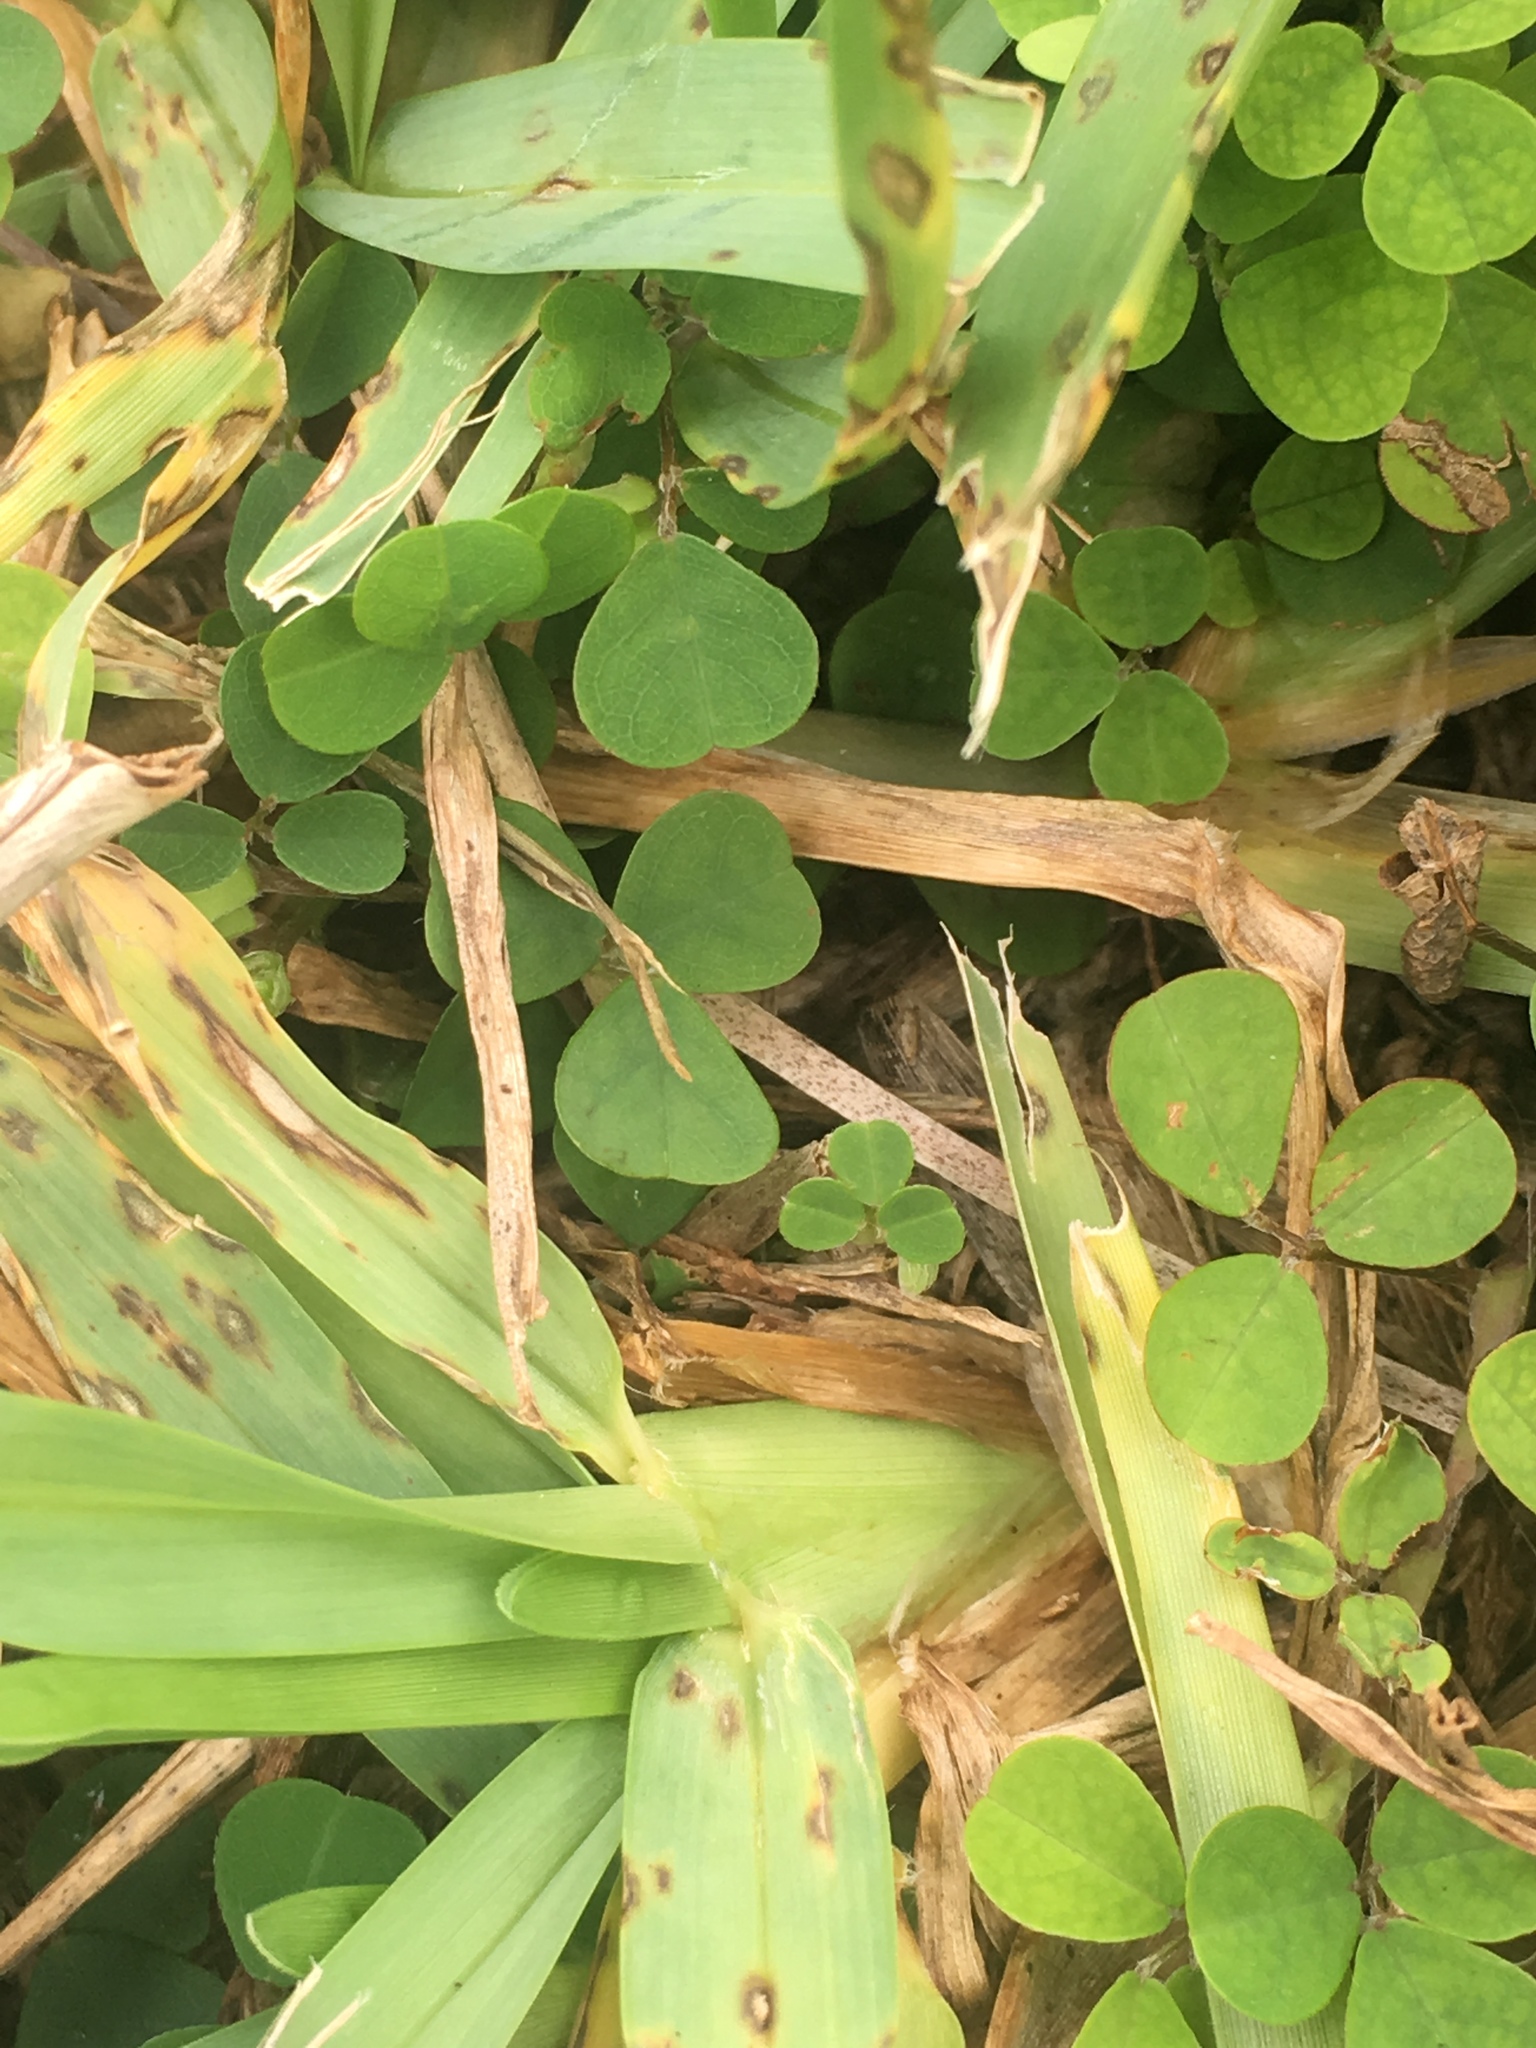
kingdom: Plantae
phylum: Tracheophyta
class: Magnoliopsida
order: Fabales
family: Fabaceae
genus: Grona
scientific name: Grona triflora
